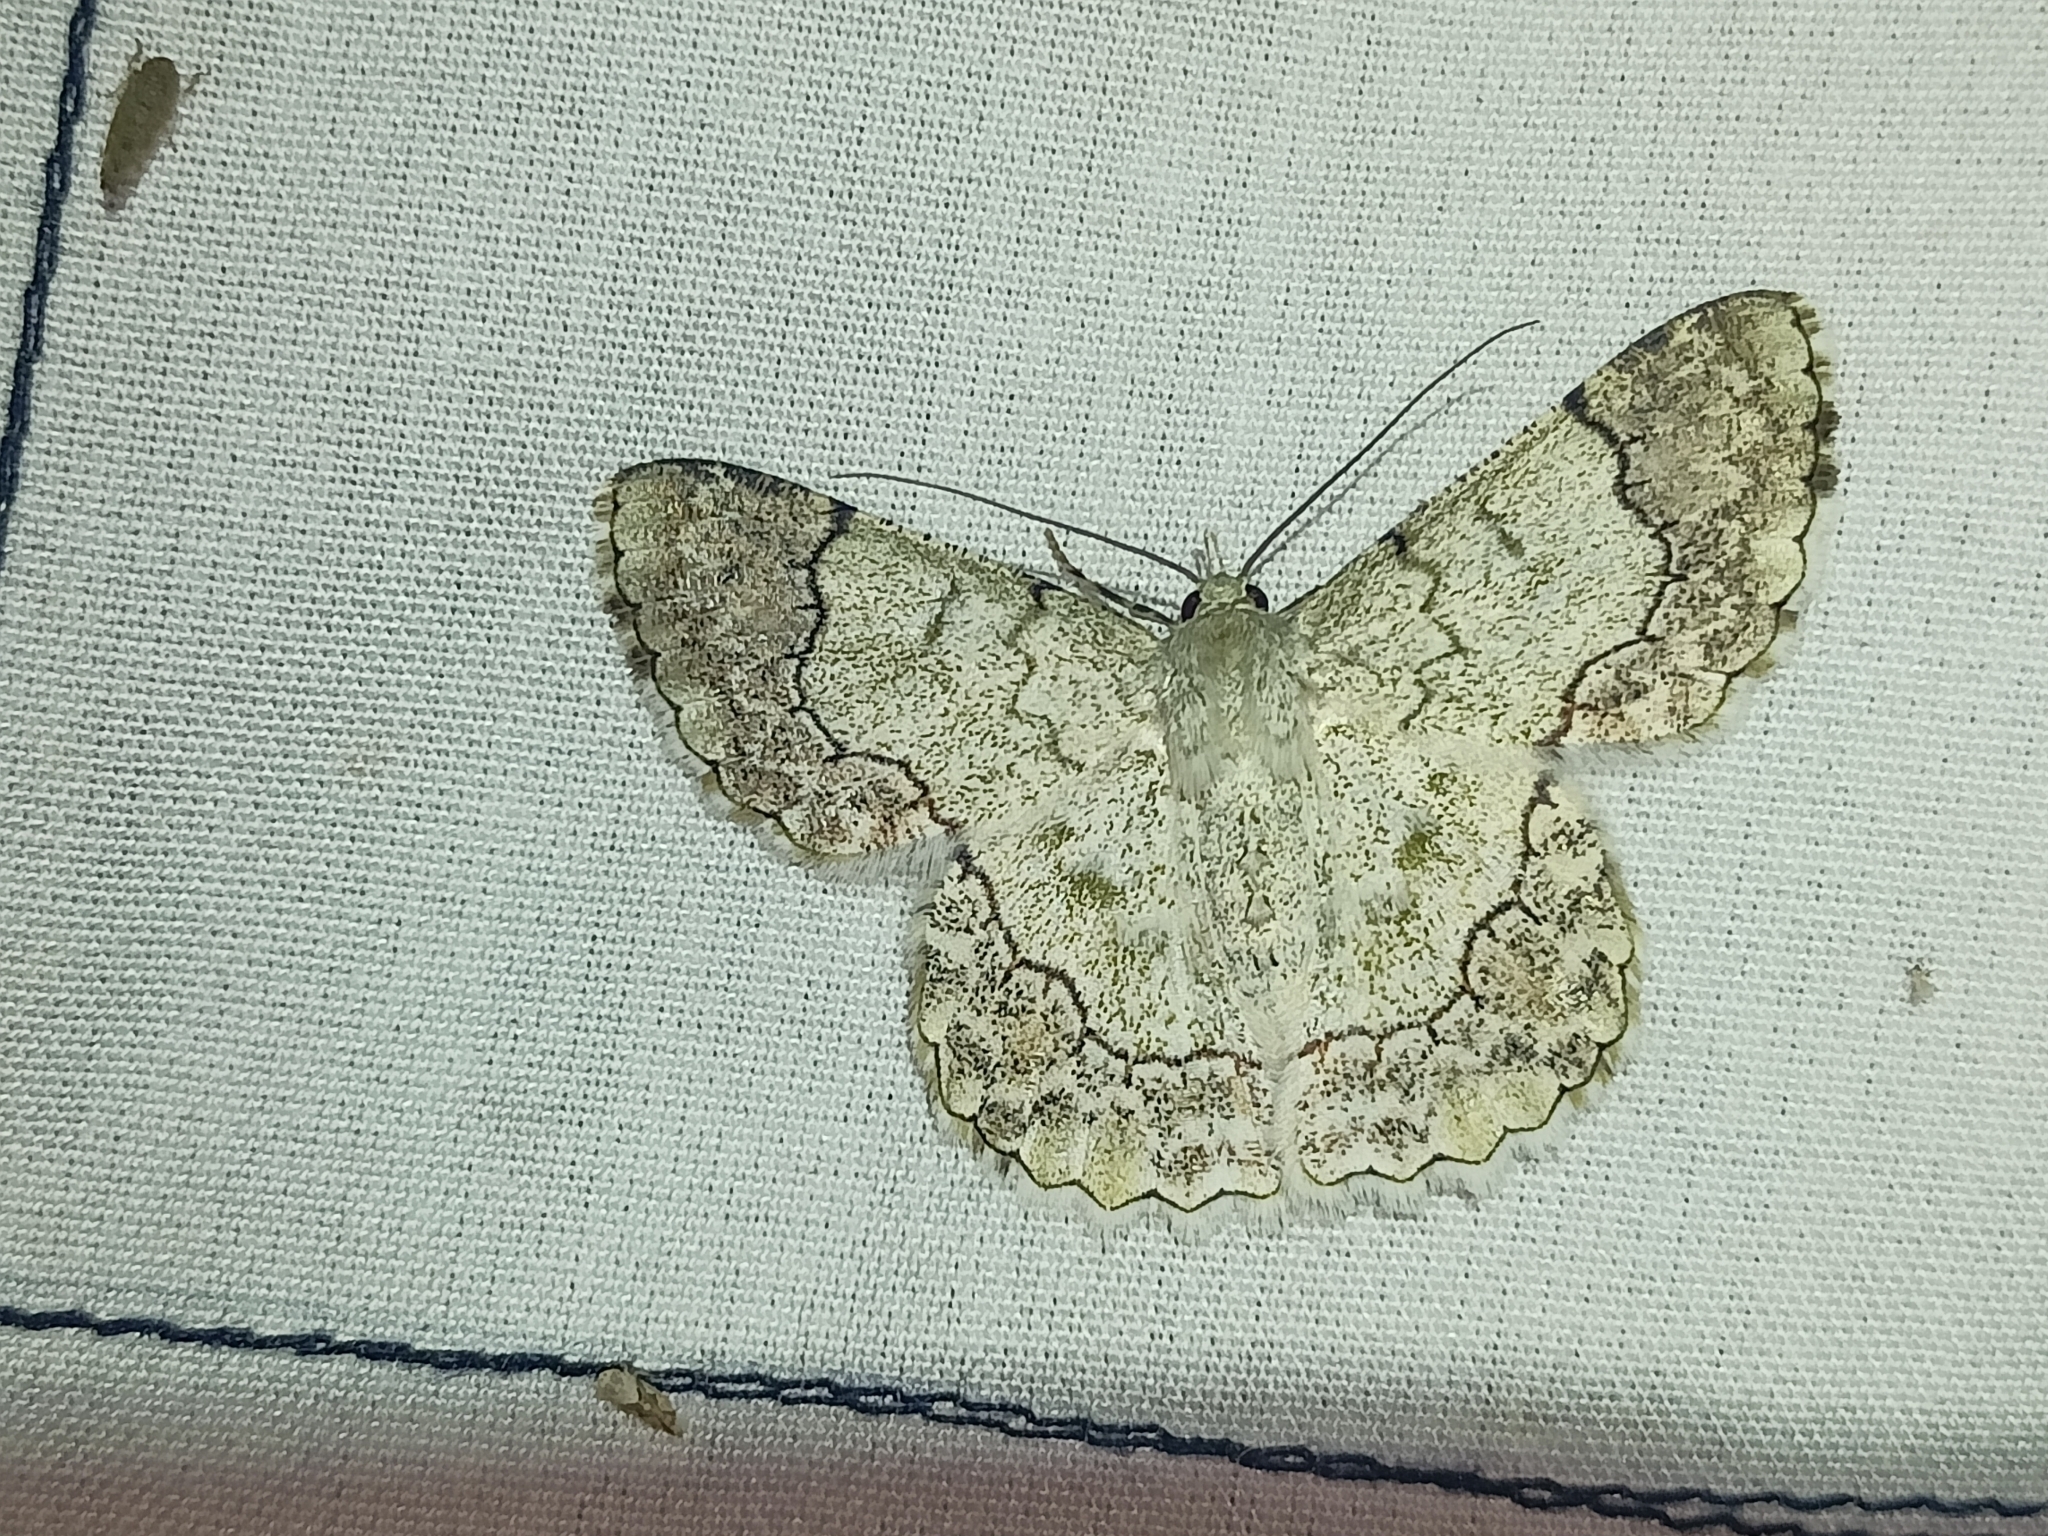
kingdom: Animalia
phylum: Arthropoda
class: Insecta
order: Lepidoptera
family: Geometridae
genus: Pingasa
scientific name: Pingasa ruginaria
